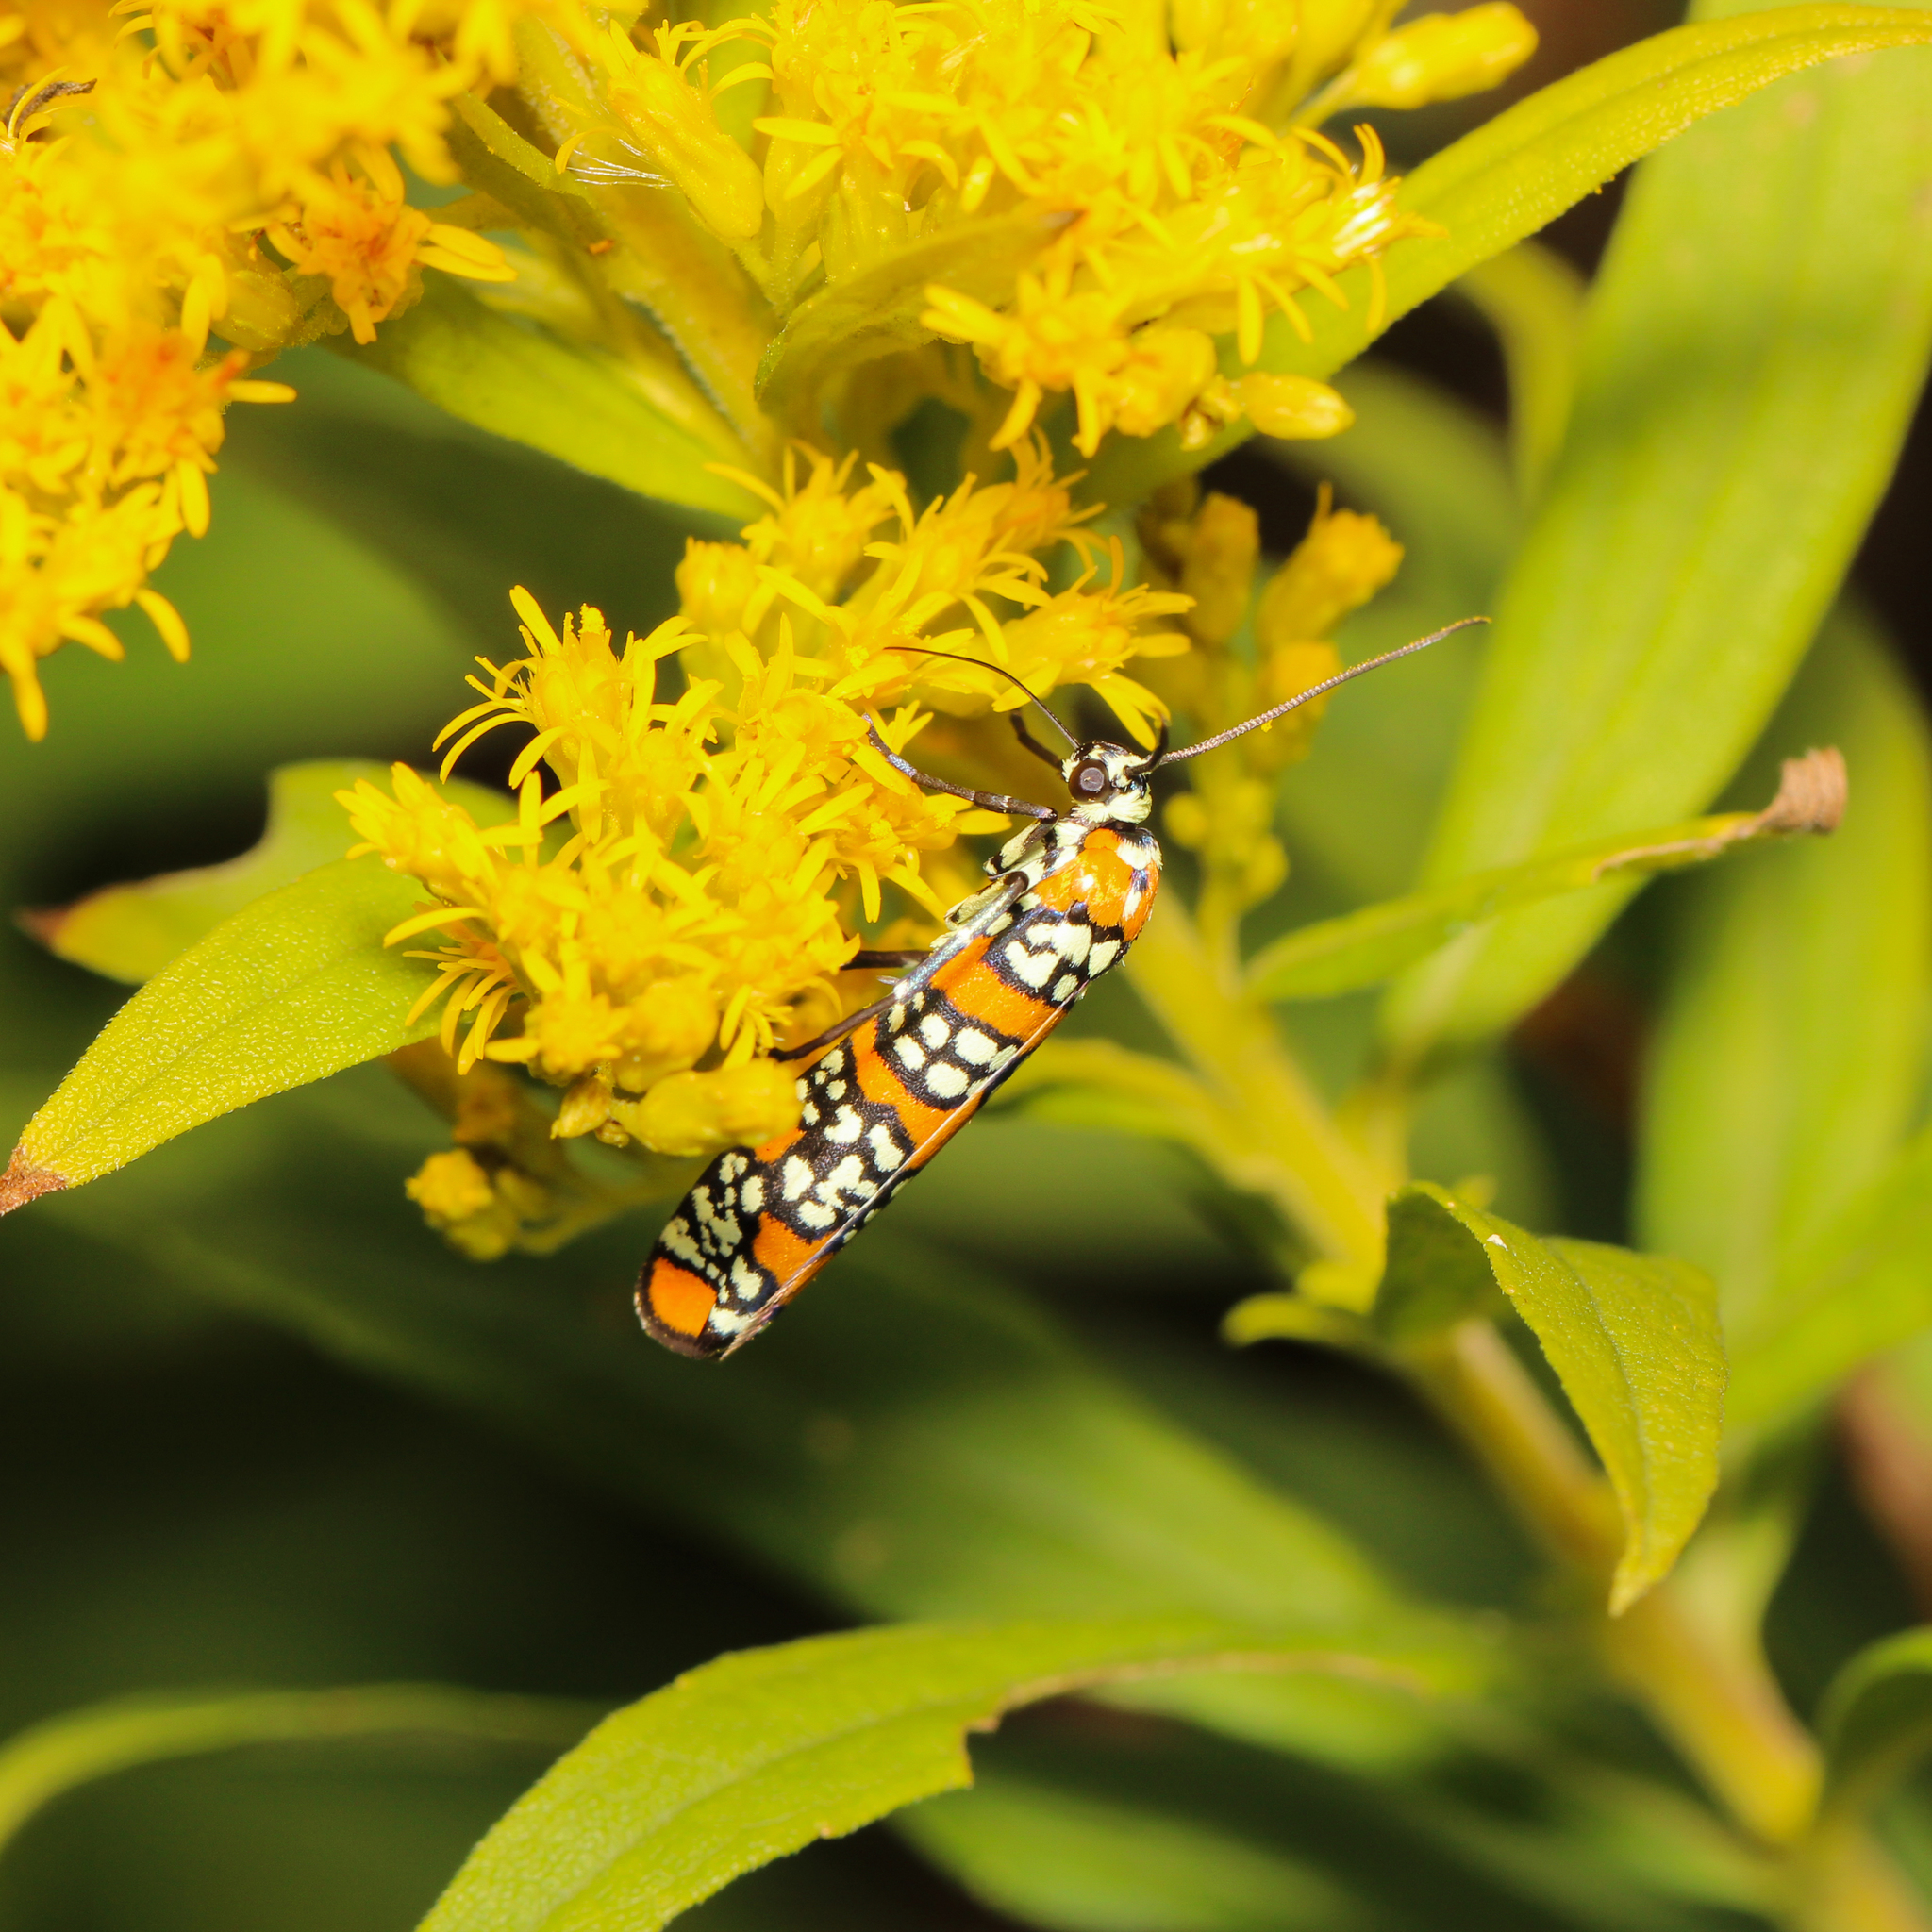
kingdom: Animalia
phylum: Arthropoda
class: Insecta
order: Lepidoptera
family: Attevidae
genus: Atteva
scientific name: Atteva punctella
